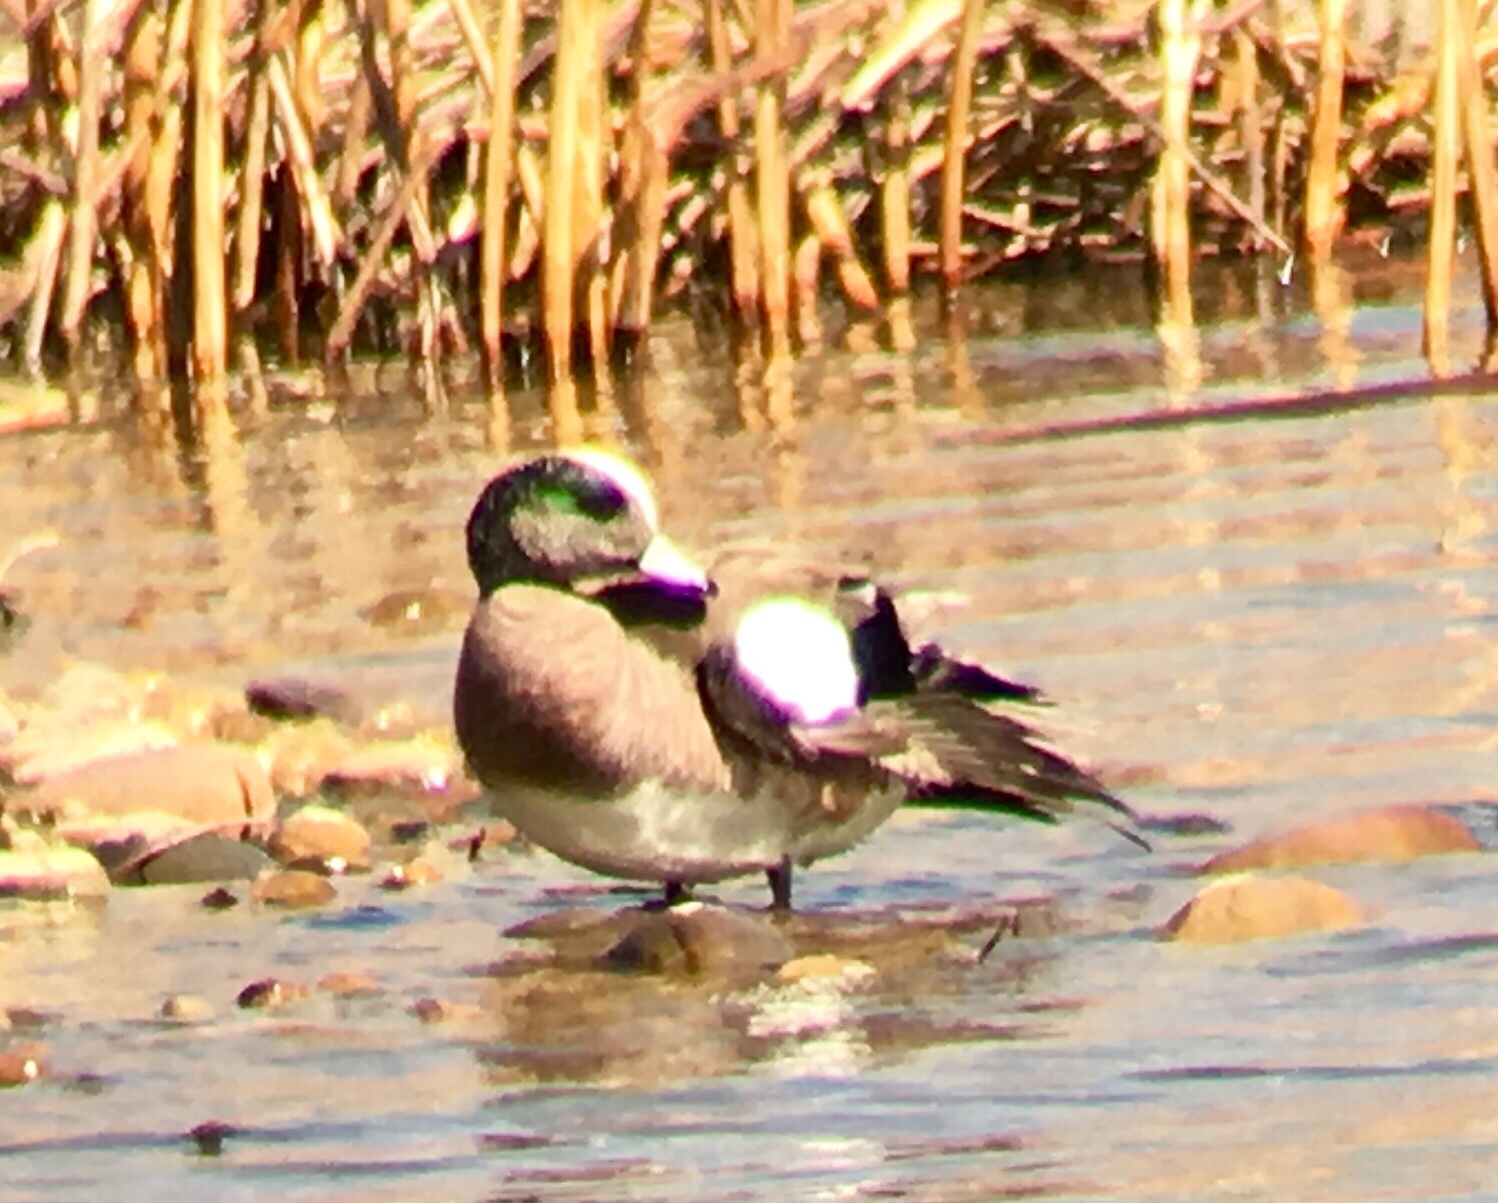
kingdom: Animalia
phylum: Chordata
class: Aves
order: Anseriformes
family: Anatidae
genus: Mareca
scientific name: Mareca americana
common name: American wigeon
